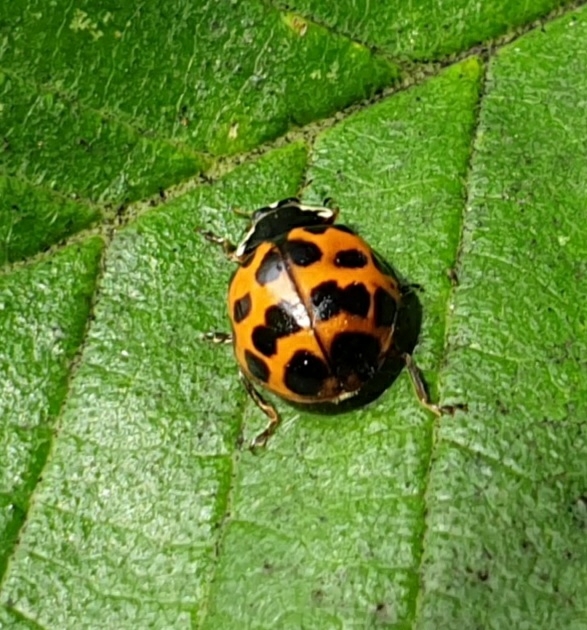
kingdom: Animalia
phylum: Arthropoda
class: Insecta
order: Coleoptera
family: Coccinellidae
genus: Harmonia
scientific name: Harmonia axyridis
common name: Harlequin ladybird
